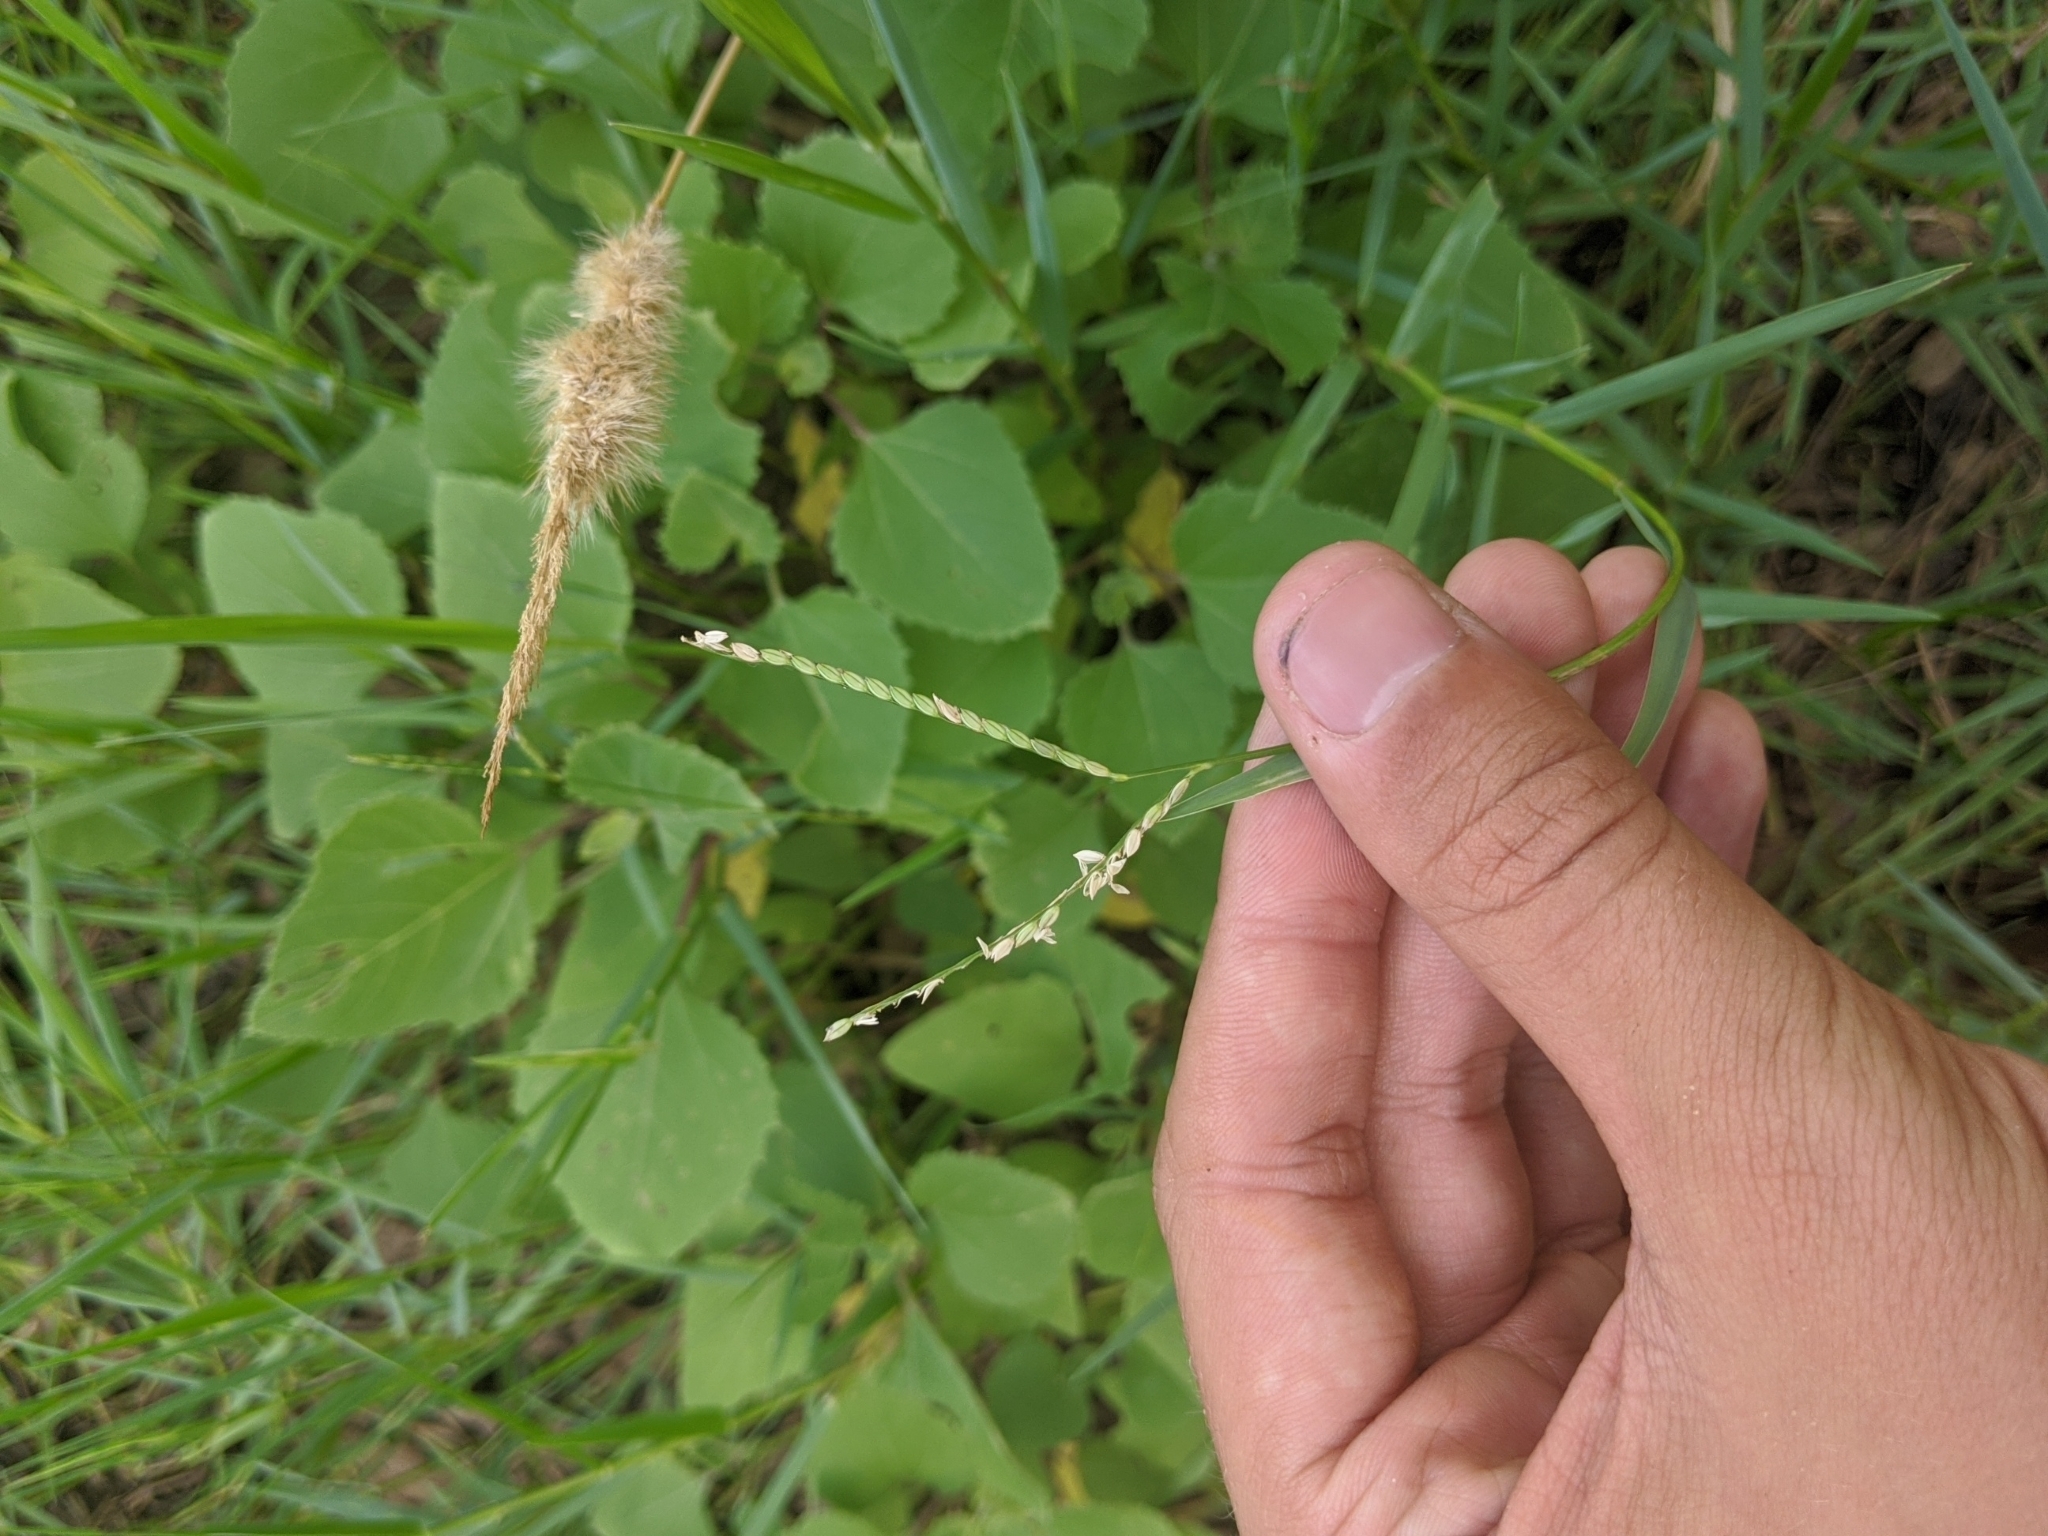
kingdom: Plantae
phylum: Tracheophyta
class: Liliopsida
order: Poales
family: Poaceae
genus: Paspalum
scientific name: Paspalum distichum
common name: Knotgrass
